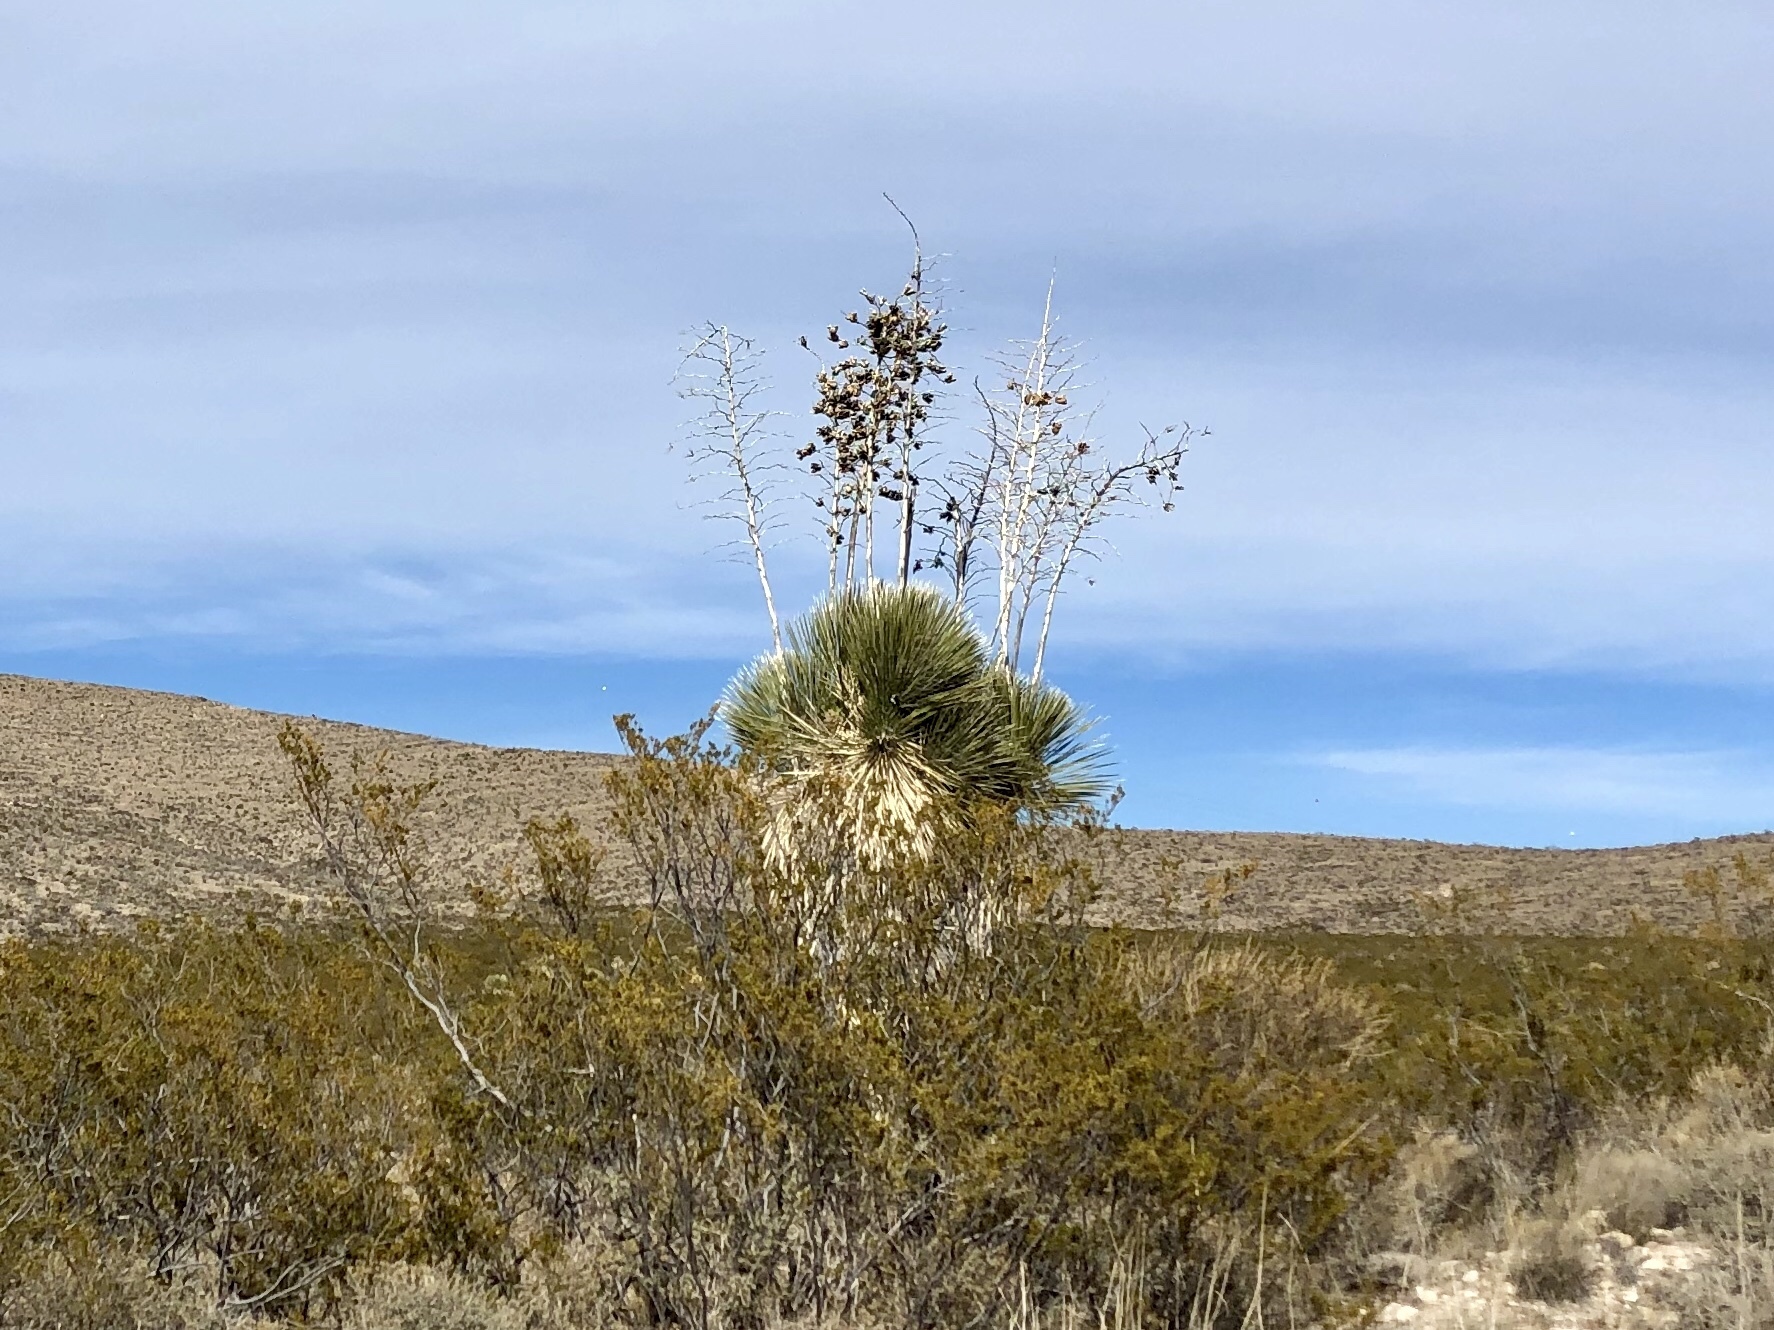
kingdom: Plantae
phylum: Tracheophyta
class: Liliopsida
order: Asparagales
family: Asparagaceae
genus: Yucca
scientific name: Yucca elata
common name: Palmella
